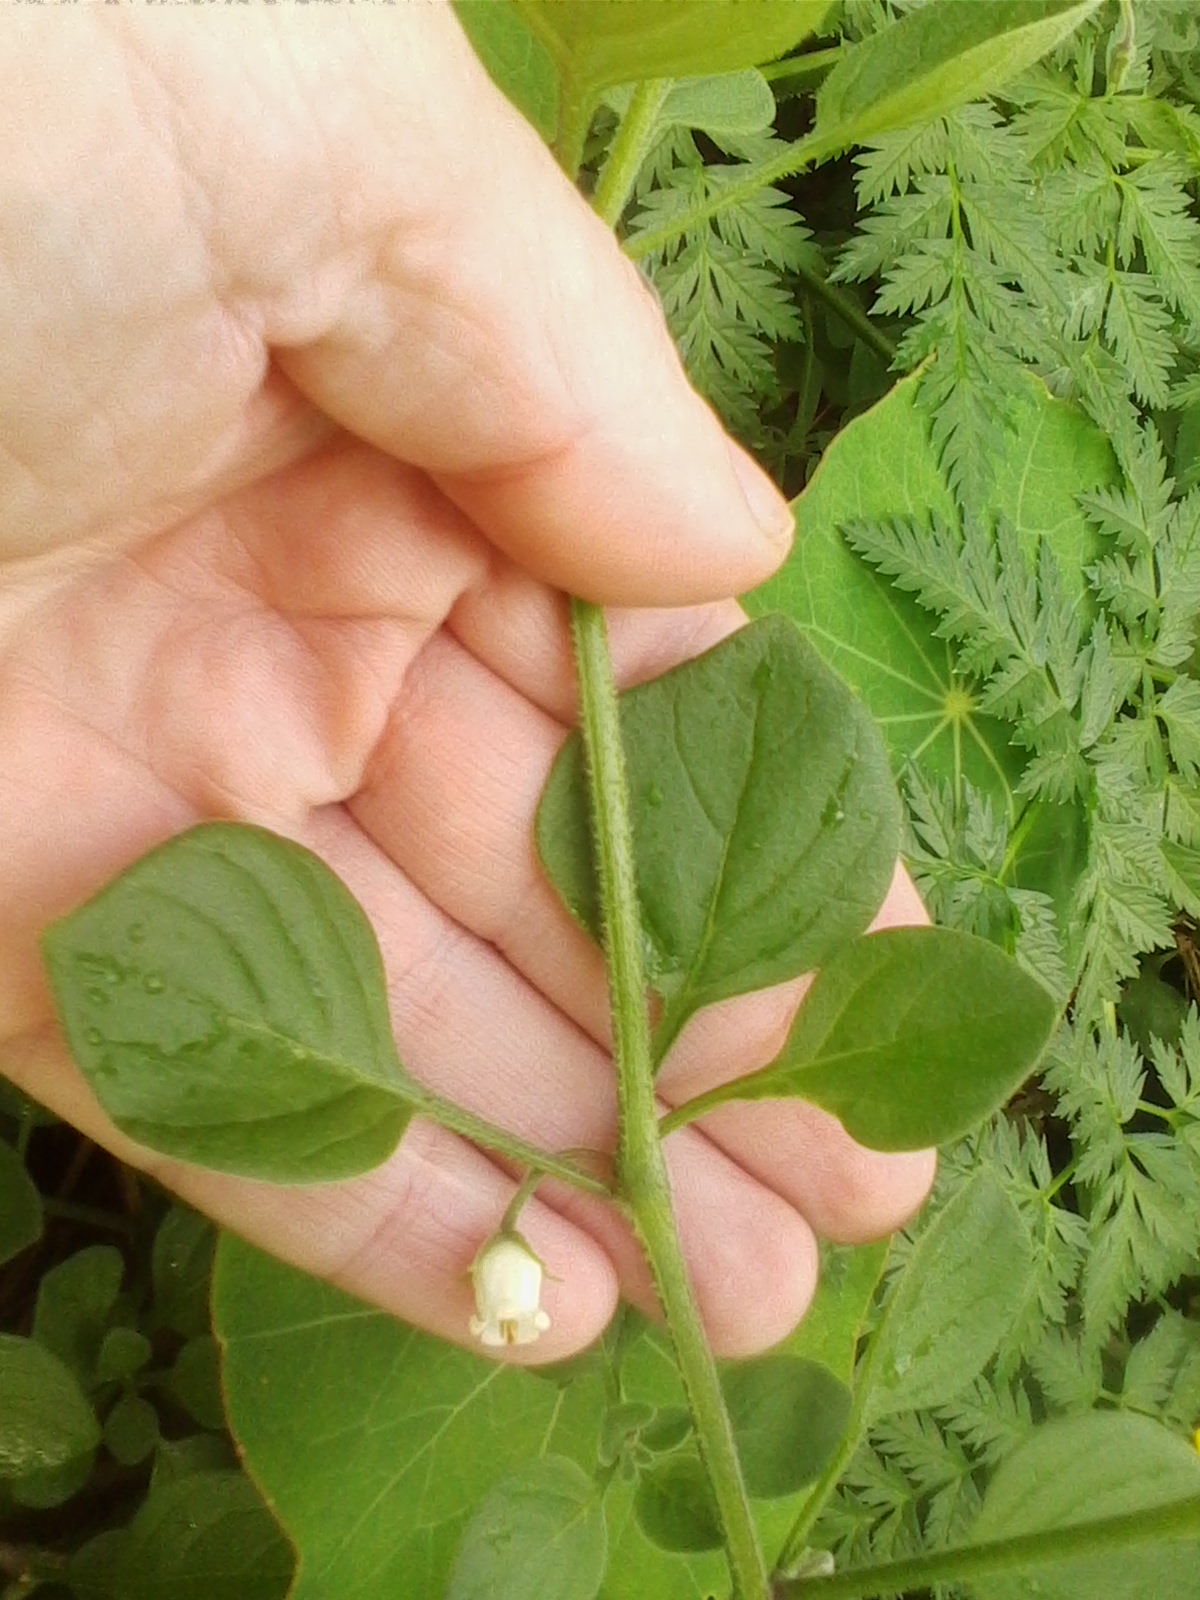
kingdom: Plantae
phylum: Tracheophyta
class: Magnoliopsida
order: Solanales
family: Solanaceae
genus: Salpichroa
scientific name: Salpichroa origanifolia
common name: Lily-of-the-valley-vine
